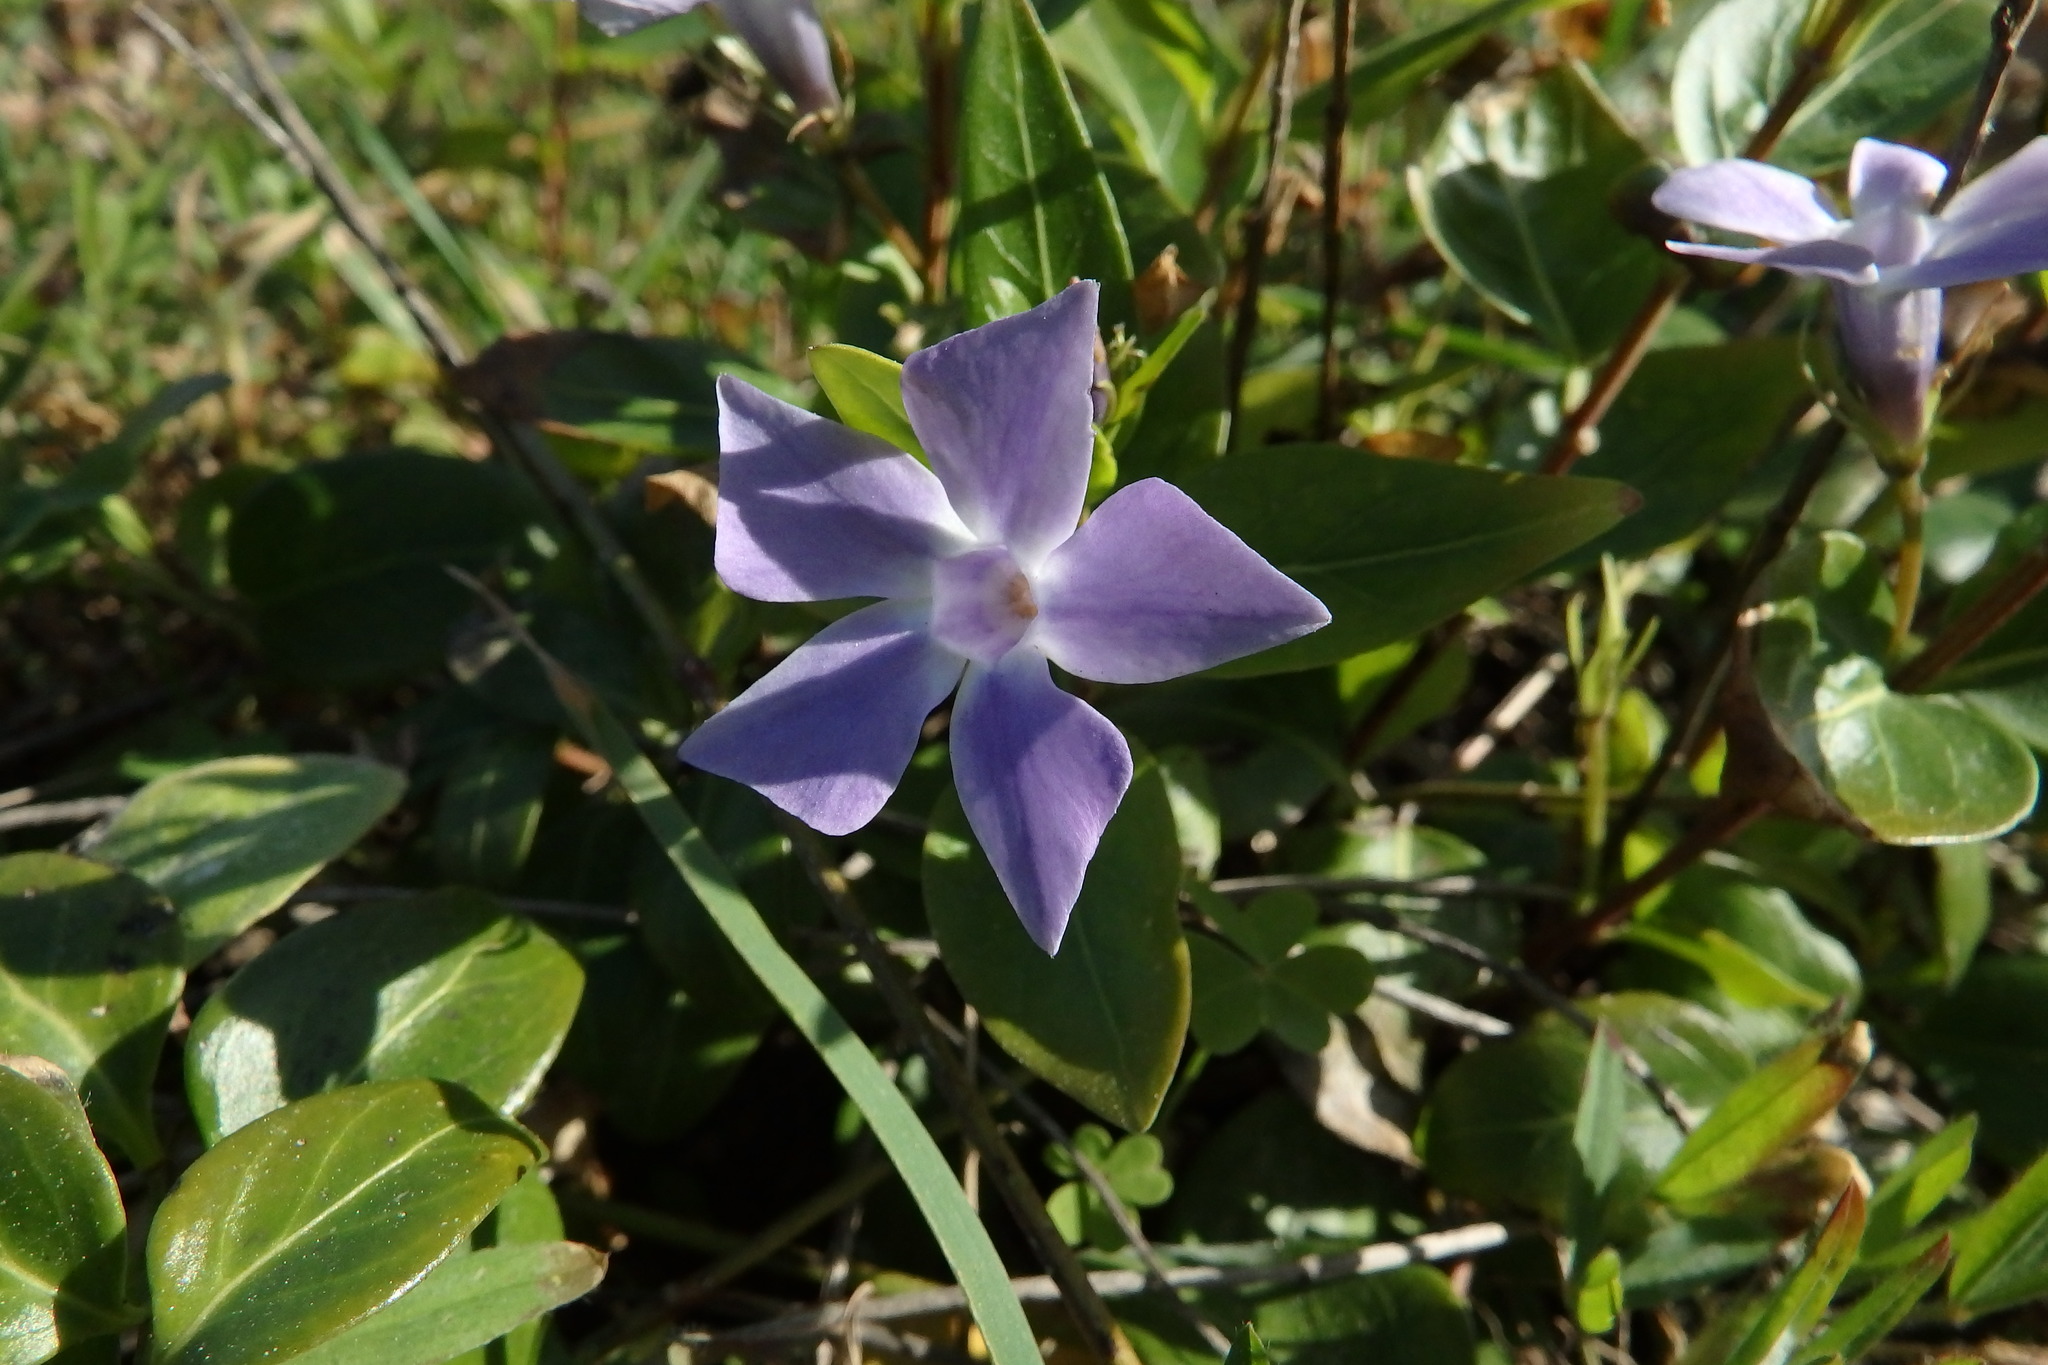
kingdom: Plantae
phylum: Tracheophyta
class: Magnoliopsida
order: Gentianales
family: Apocynaceae
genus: Vinca
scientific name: Vinca difformis
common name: Intermediate periwinkle
